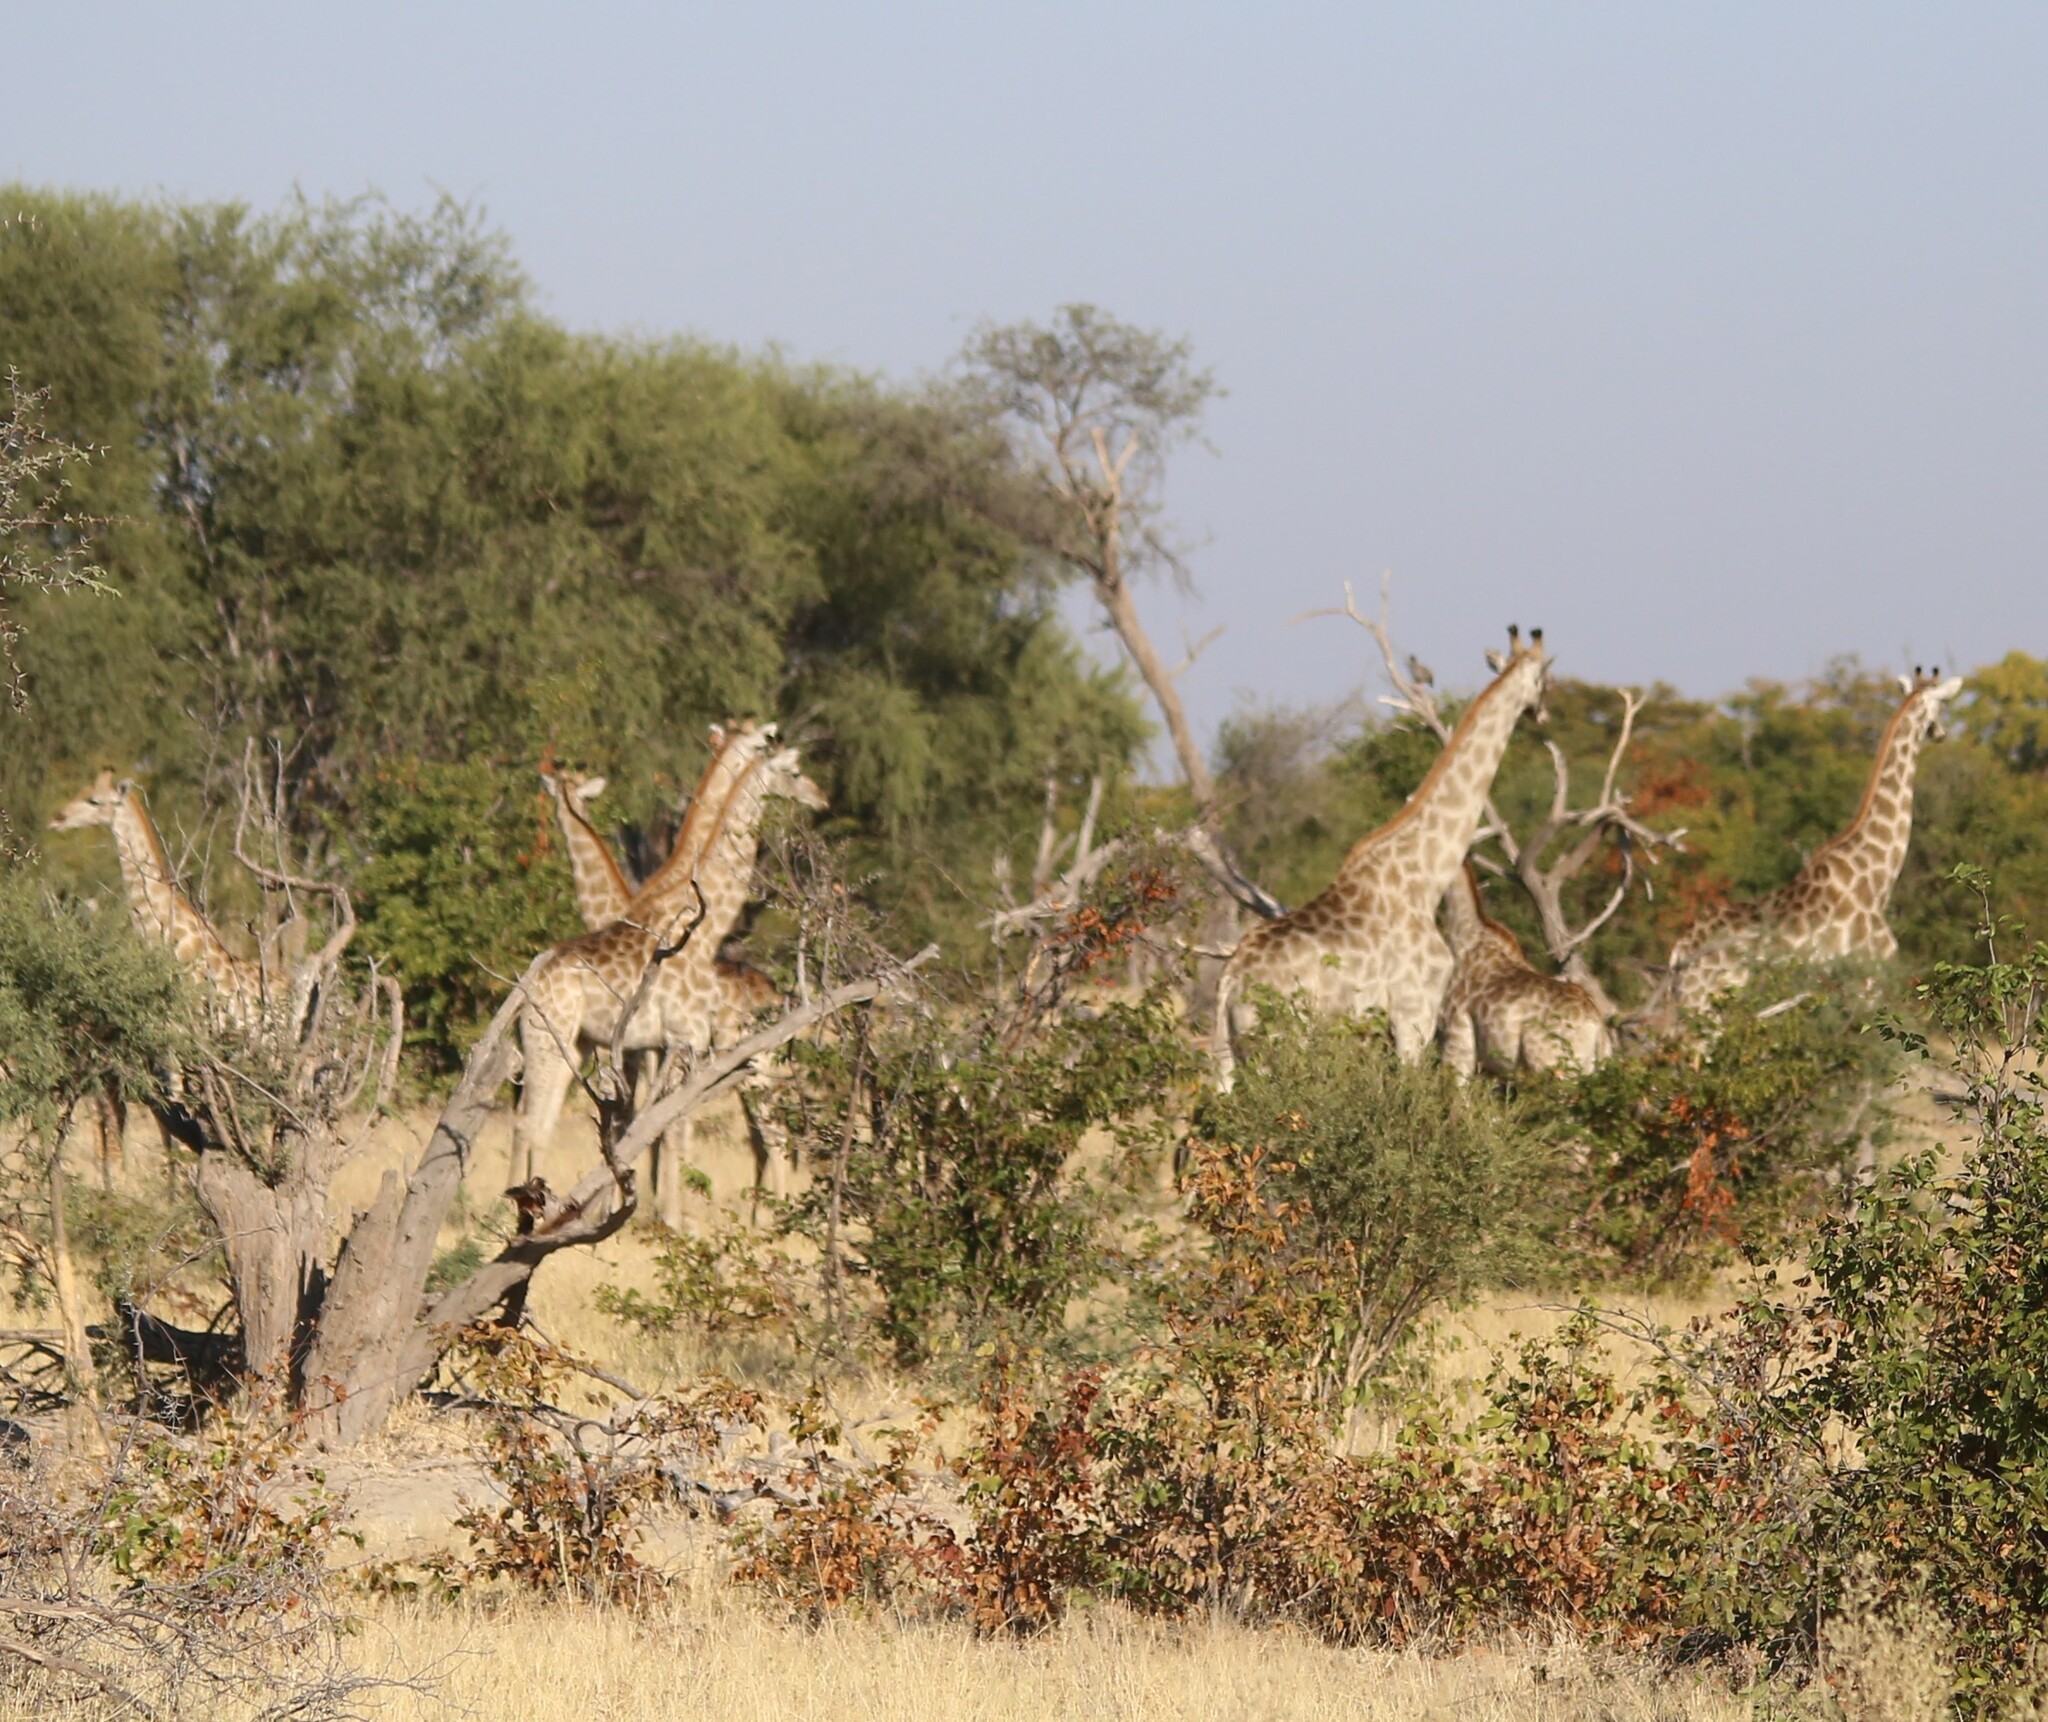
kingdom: Animalia
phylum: Chordata
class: Mammalia
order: Artiodactyla
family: Giraffidae
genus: Giraffa
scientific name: Giraffa giraffa
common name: Southern giraffe
